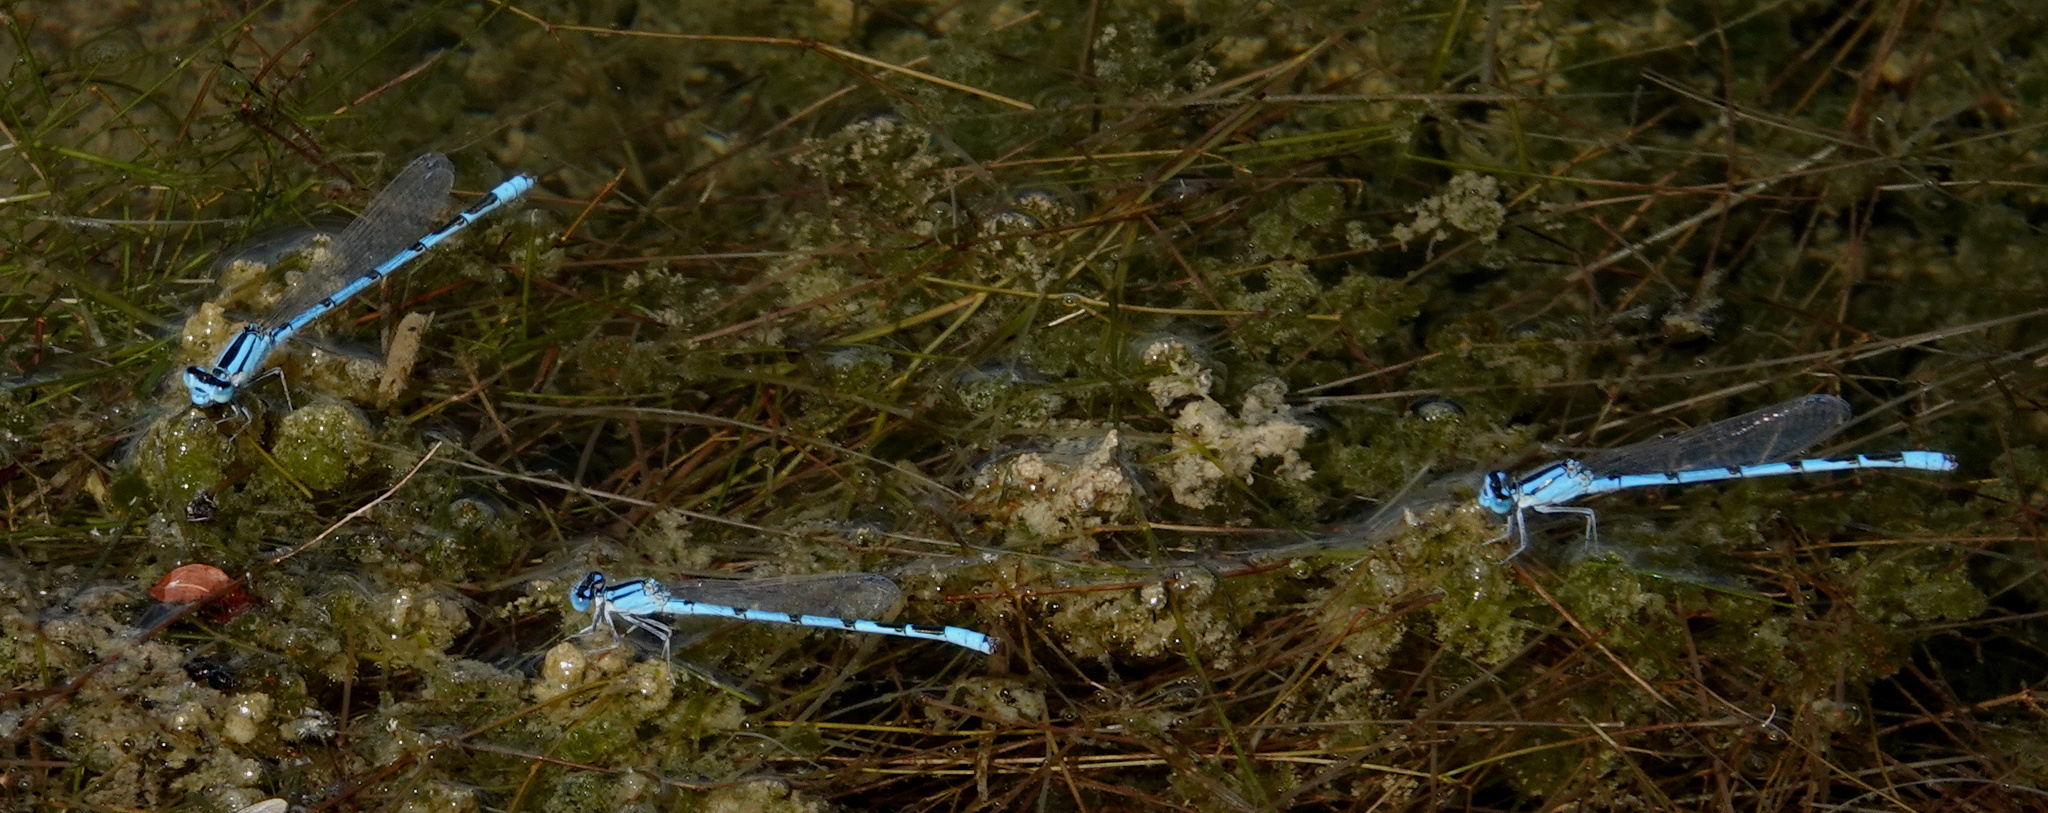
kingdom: Animalia
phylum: Arthropoda
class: Insecta
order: Odonata
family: Coenagrionidae
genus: Enallagma
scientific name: Enallagma civile
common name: Damselfly
